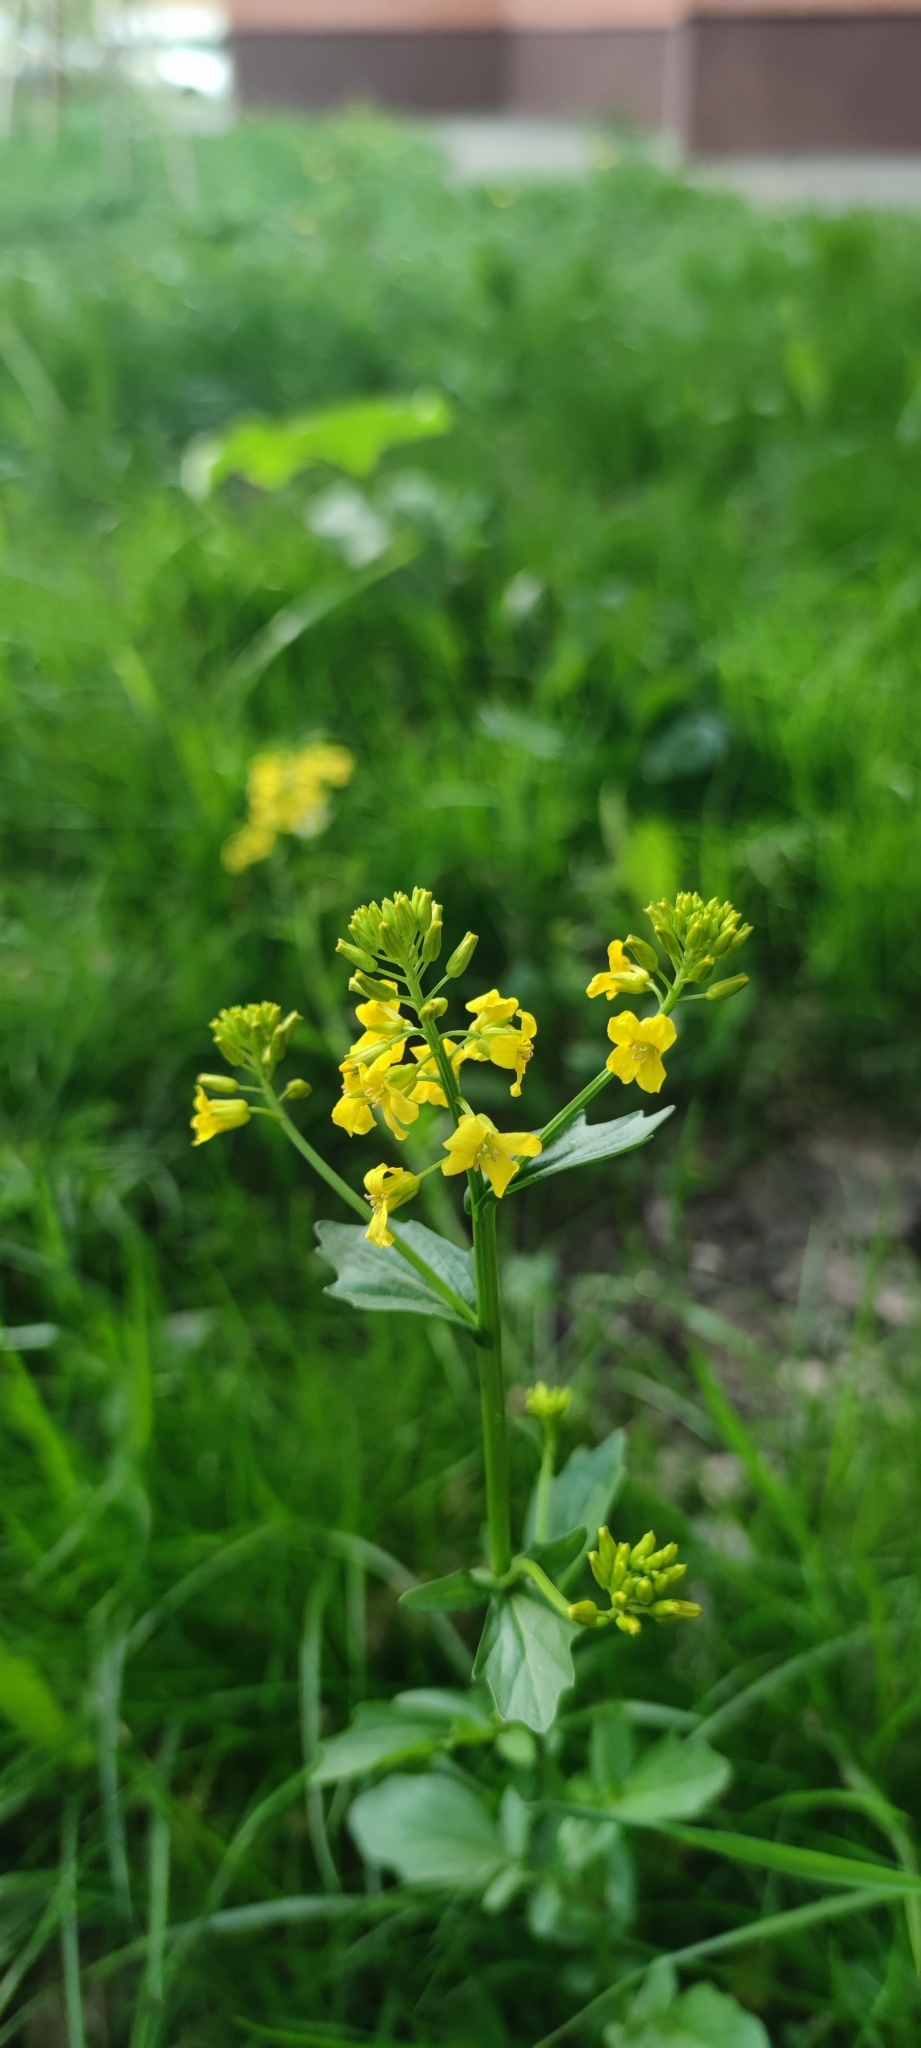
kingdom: Plantae
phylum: Tracheophyta
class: Magnoliopsida
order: Brassicales
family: Brassicaceae
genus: Barbarea
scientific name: Barbarea vulgaris
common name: Cressy-greens
